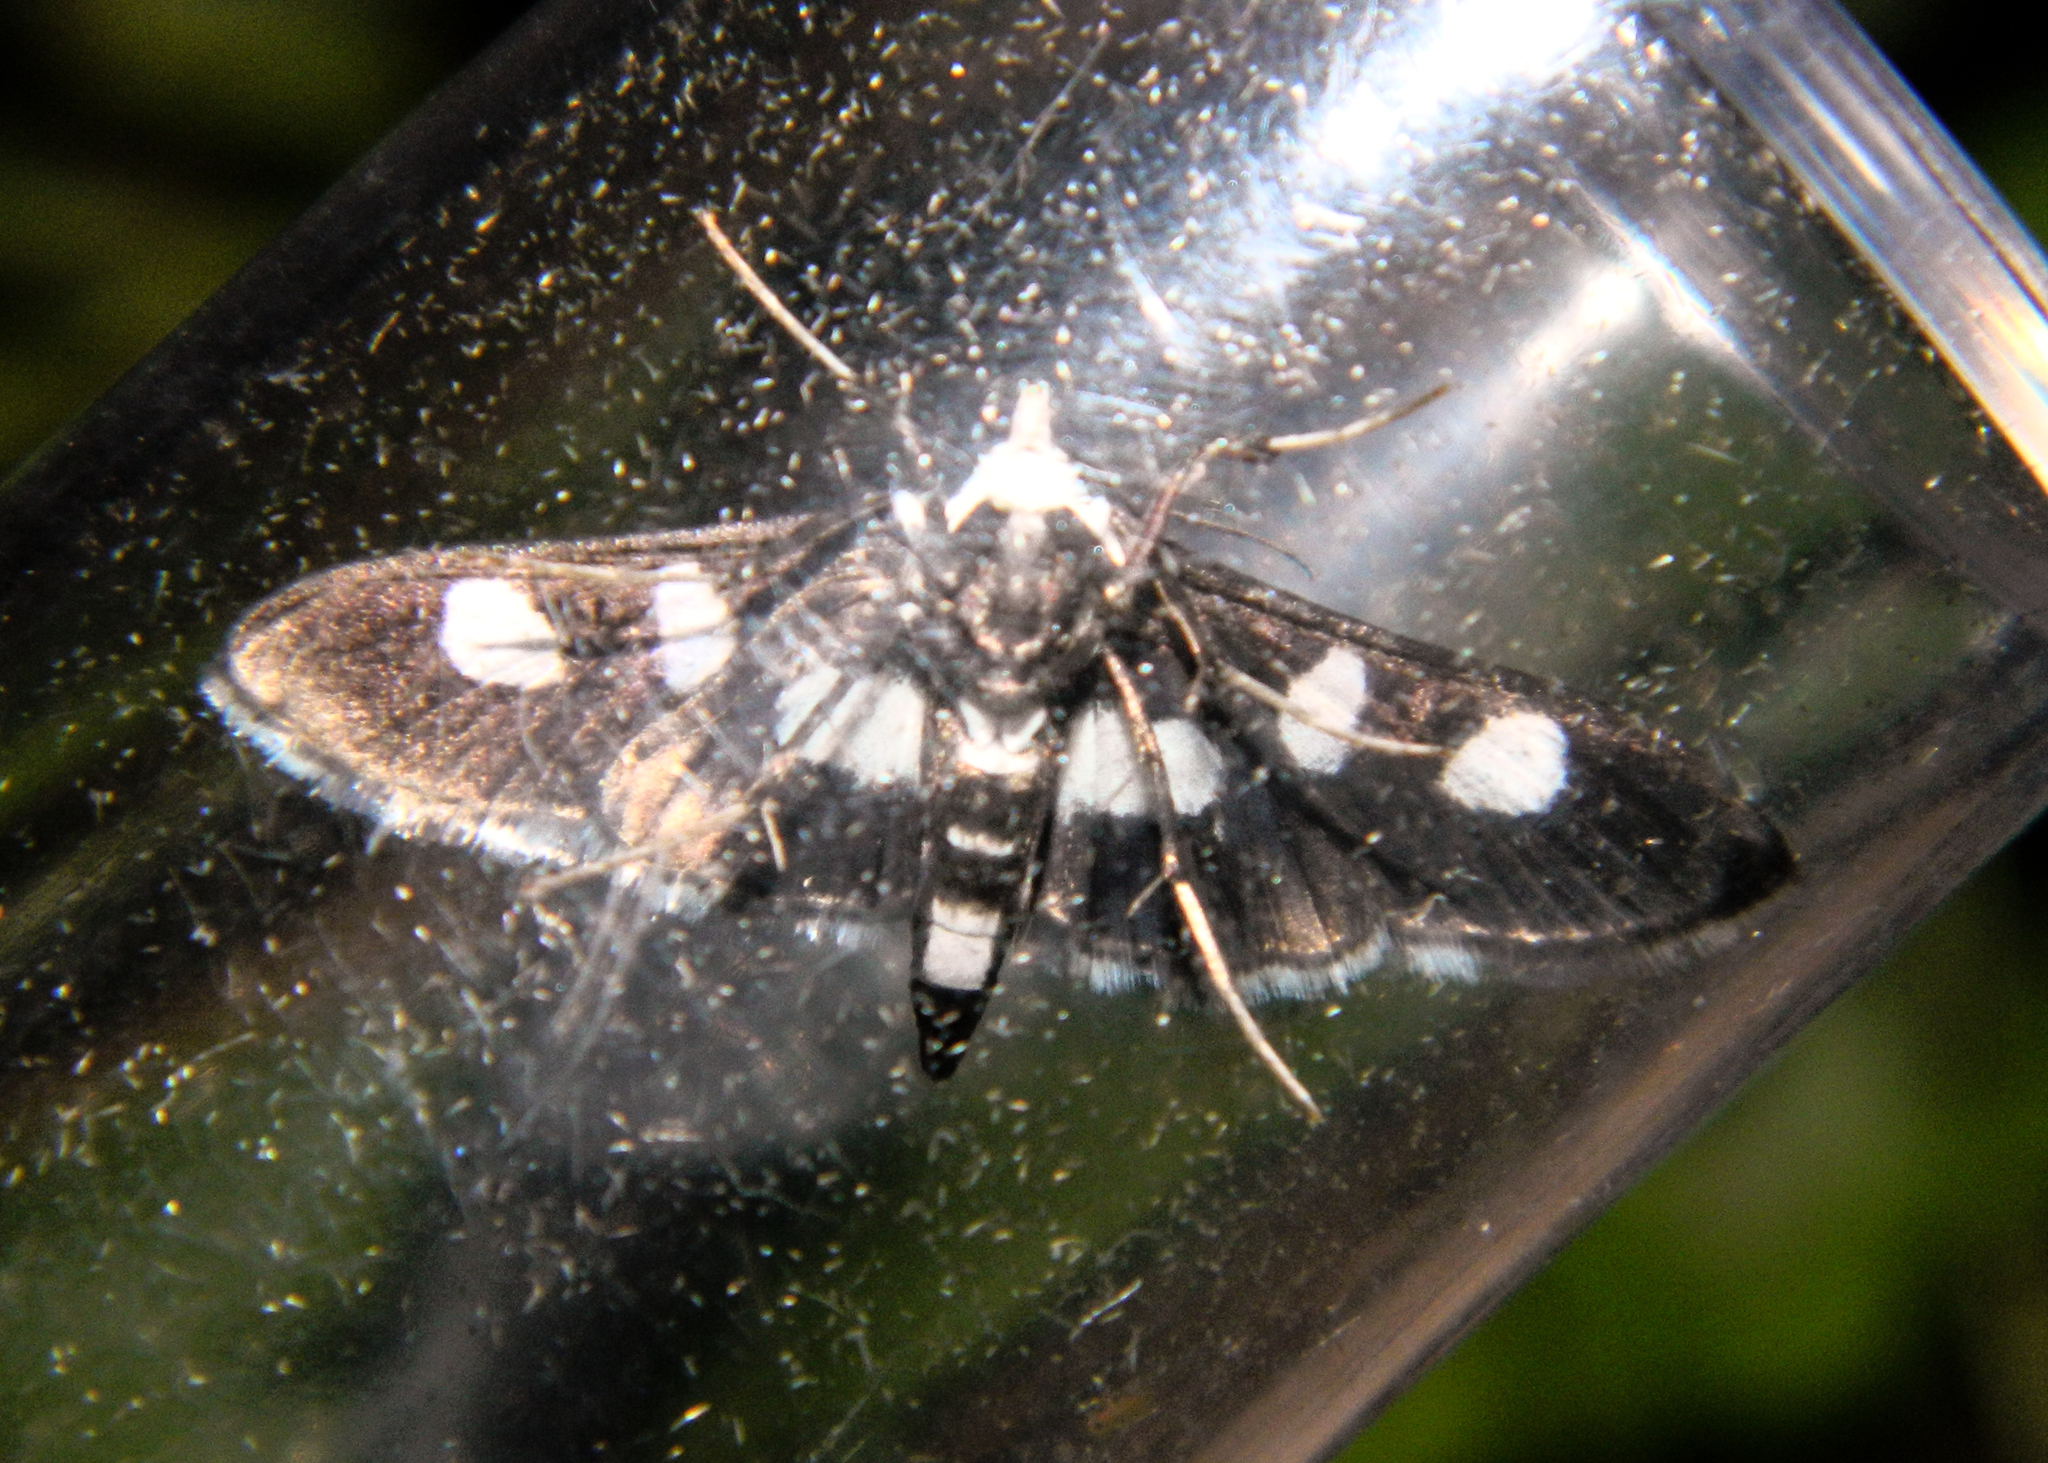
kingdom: Animalia
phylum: Arthropoda
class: Insecta
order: Lepidoptera
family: Crambidae
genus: Desmia
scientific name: Desmia funeralis
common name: Grape leaf folder moth
